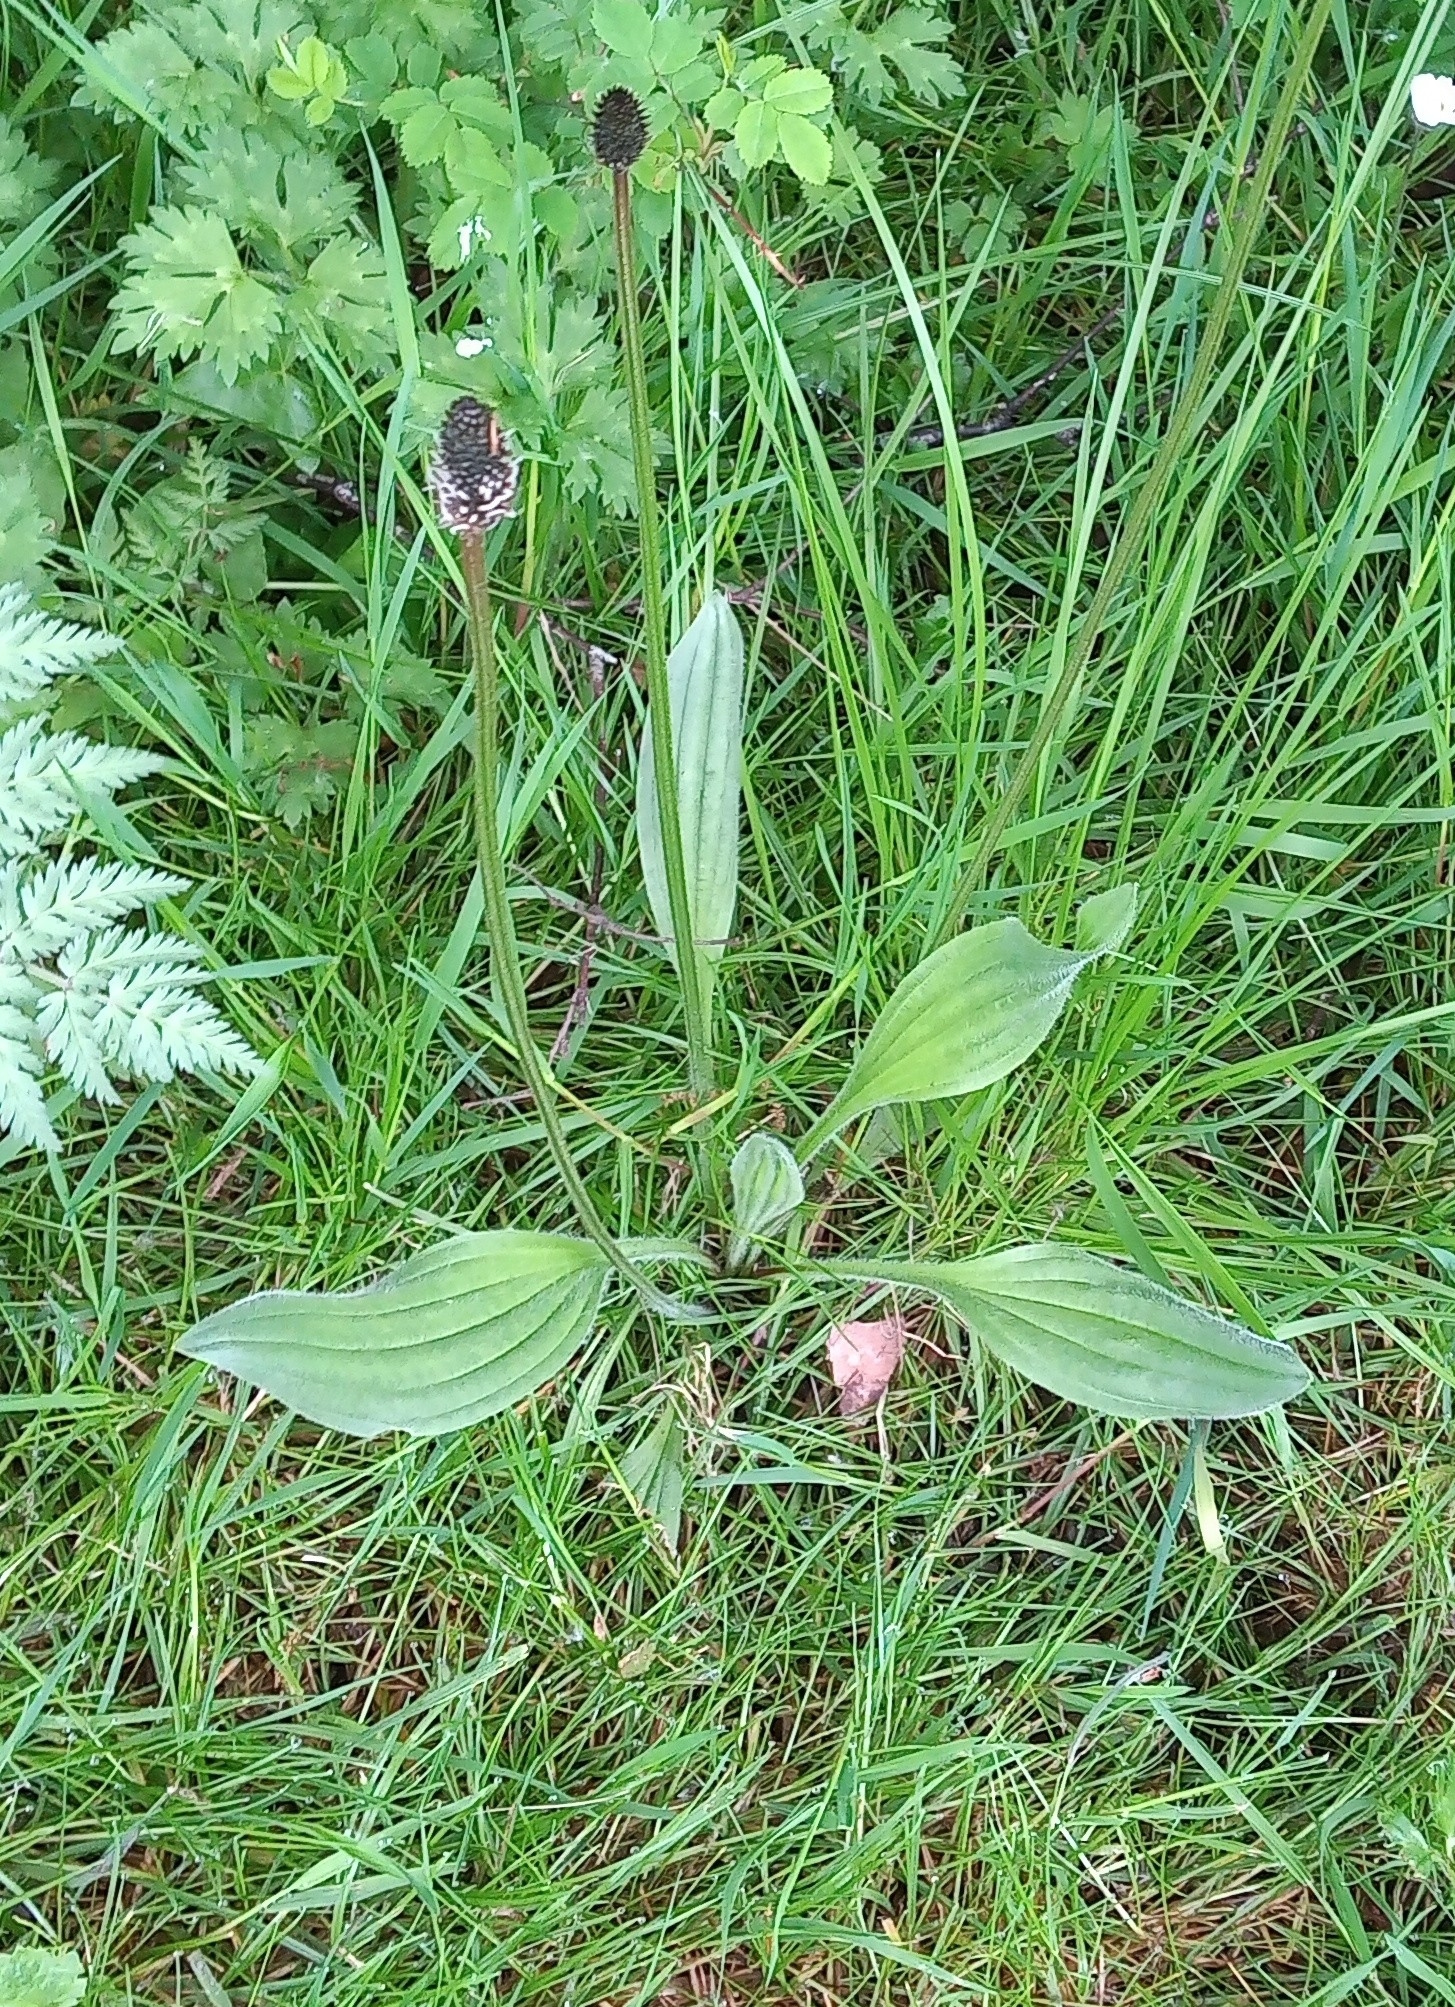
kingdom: Plantae
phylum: Tracheophyta
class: Magnoliopsida
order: Lamiales
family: Plantaginaceae
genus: Plantago
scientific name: Plantago lanceolata
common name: Ribwort plantain
